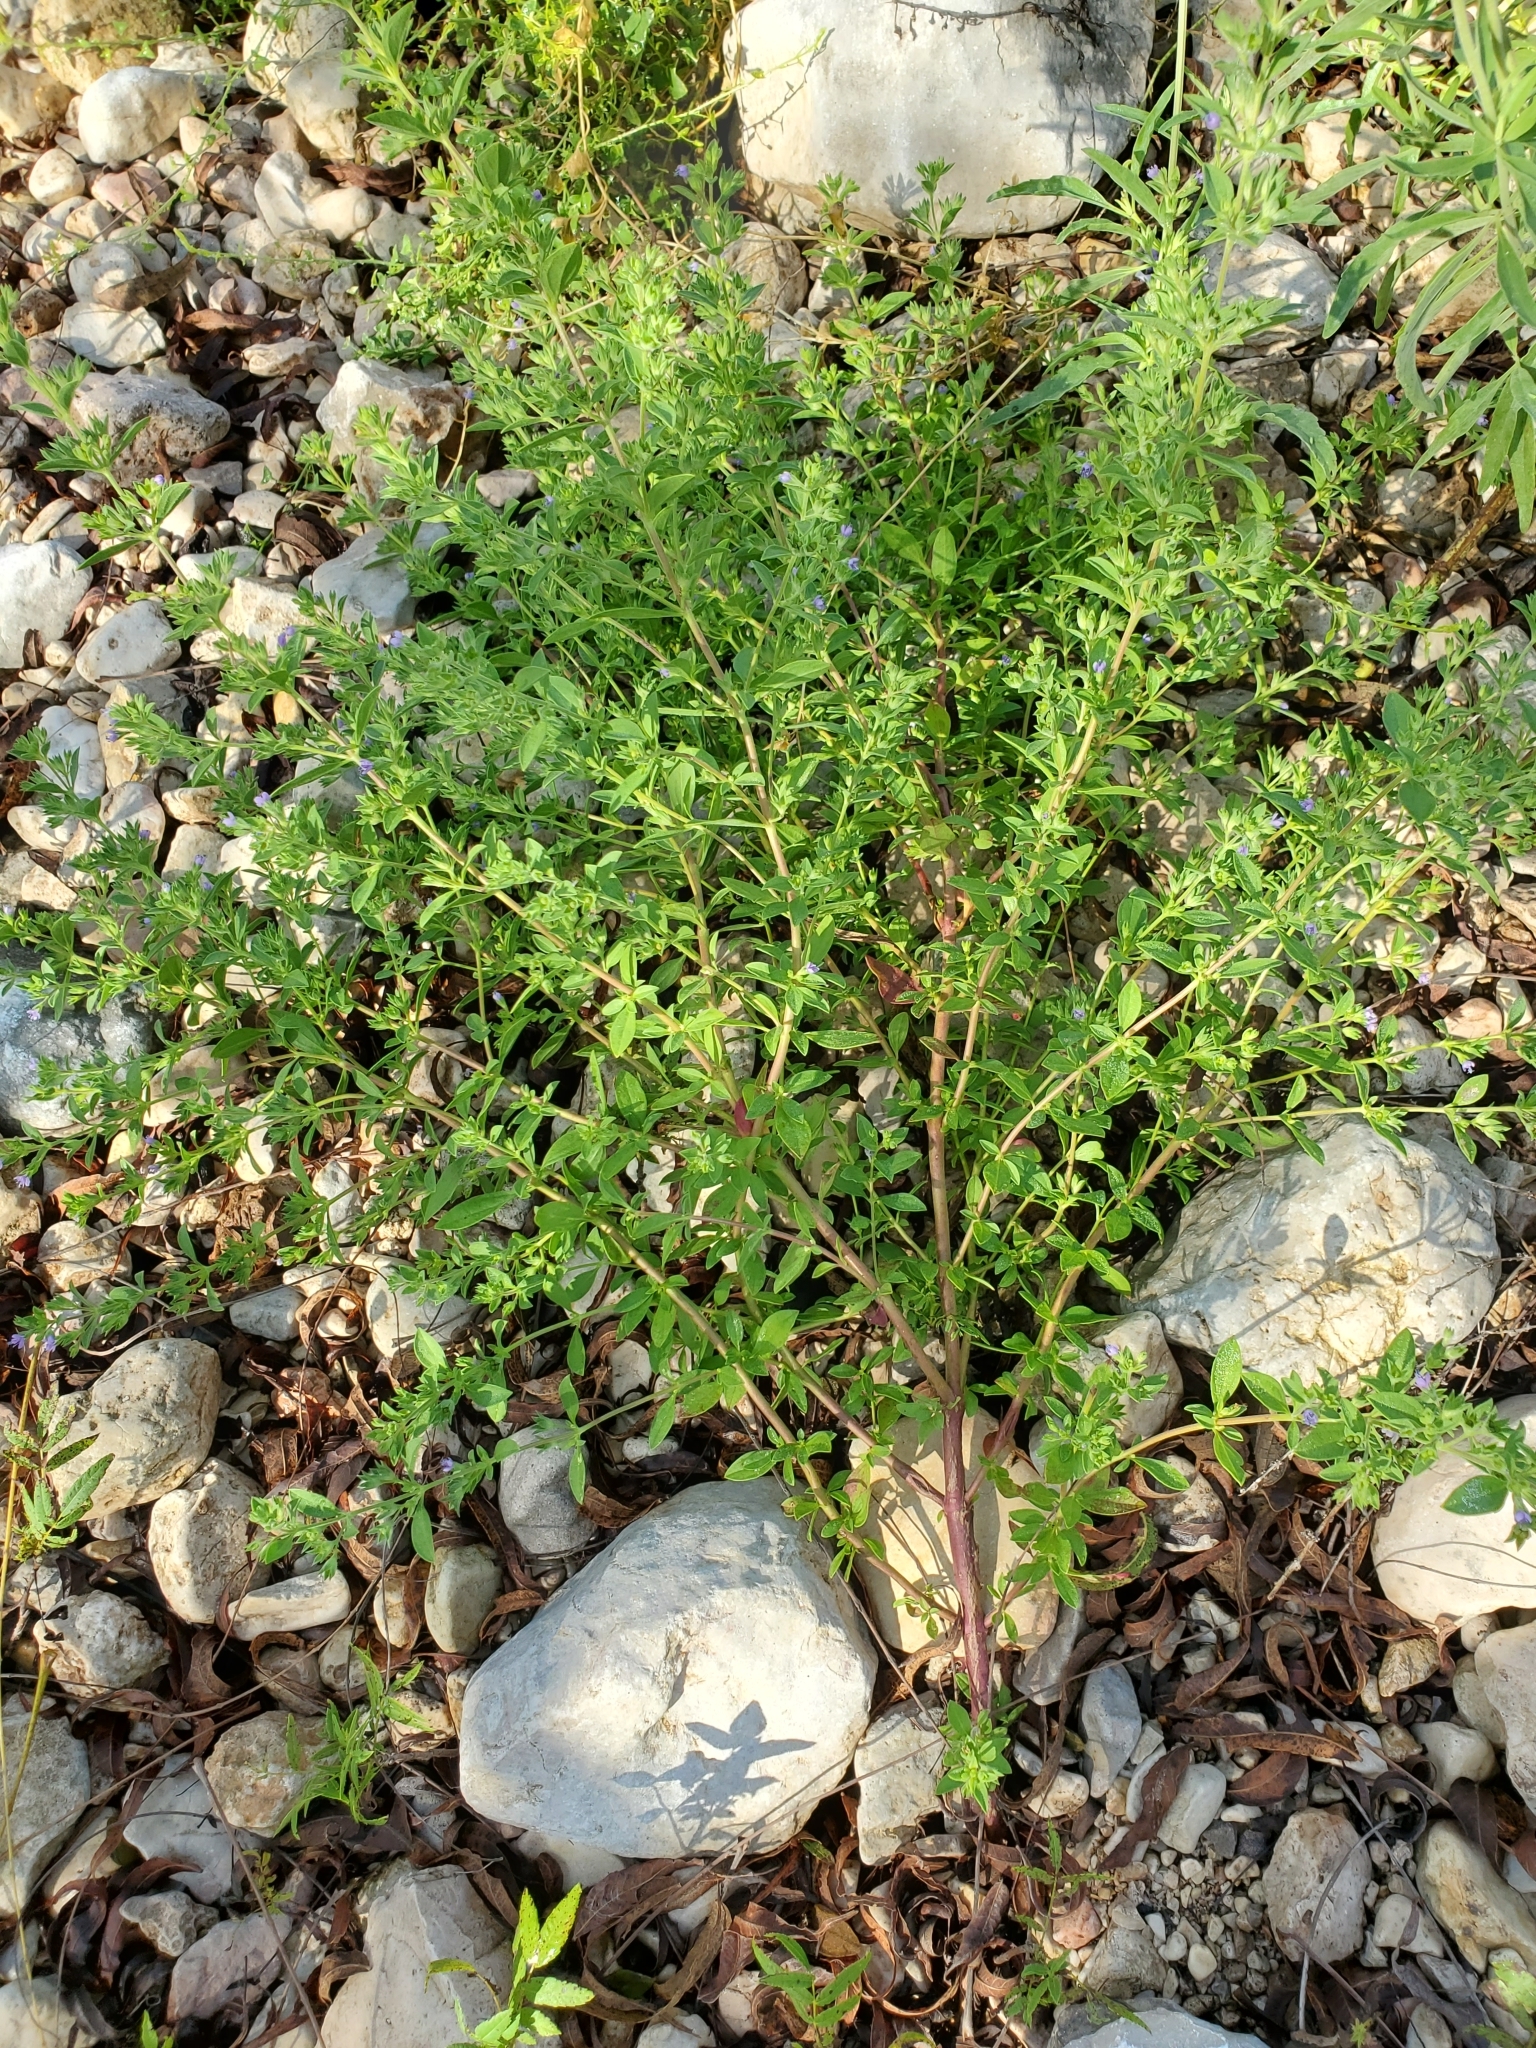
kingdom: Plantae
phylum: Tracheophyta
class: Magnoliopsida
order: Lamiales
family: Lamiaceae
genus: Trichostema
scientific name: Trichostema brachiatum
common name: False pennyroyal
